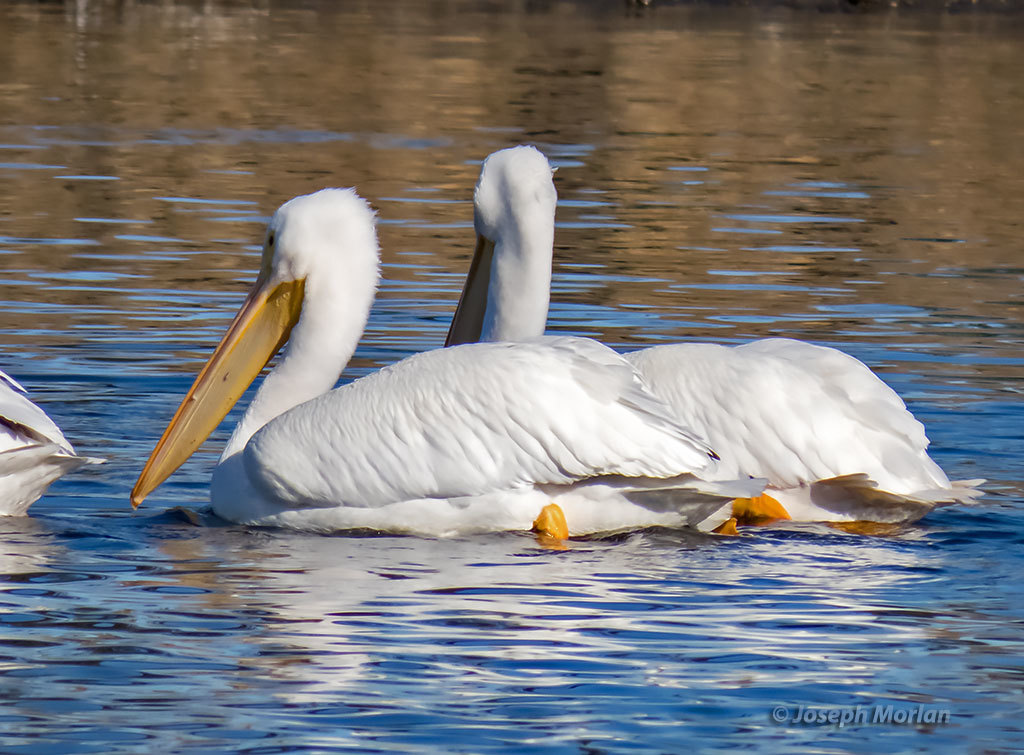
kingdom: Animalia
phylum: Chordata
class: Aves
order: Pelecaniformes
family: Pelecanidae
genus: Pelecanus
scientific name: Pelecanus erythrorhynchos
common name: American white pelican
